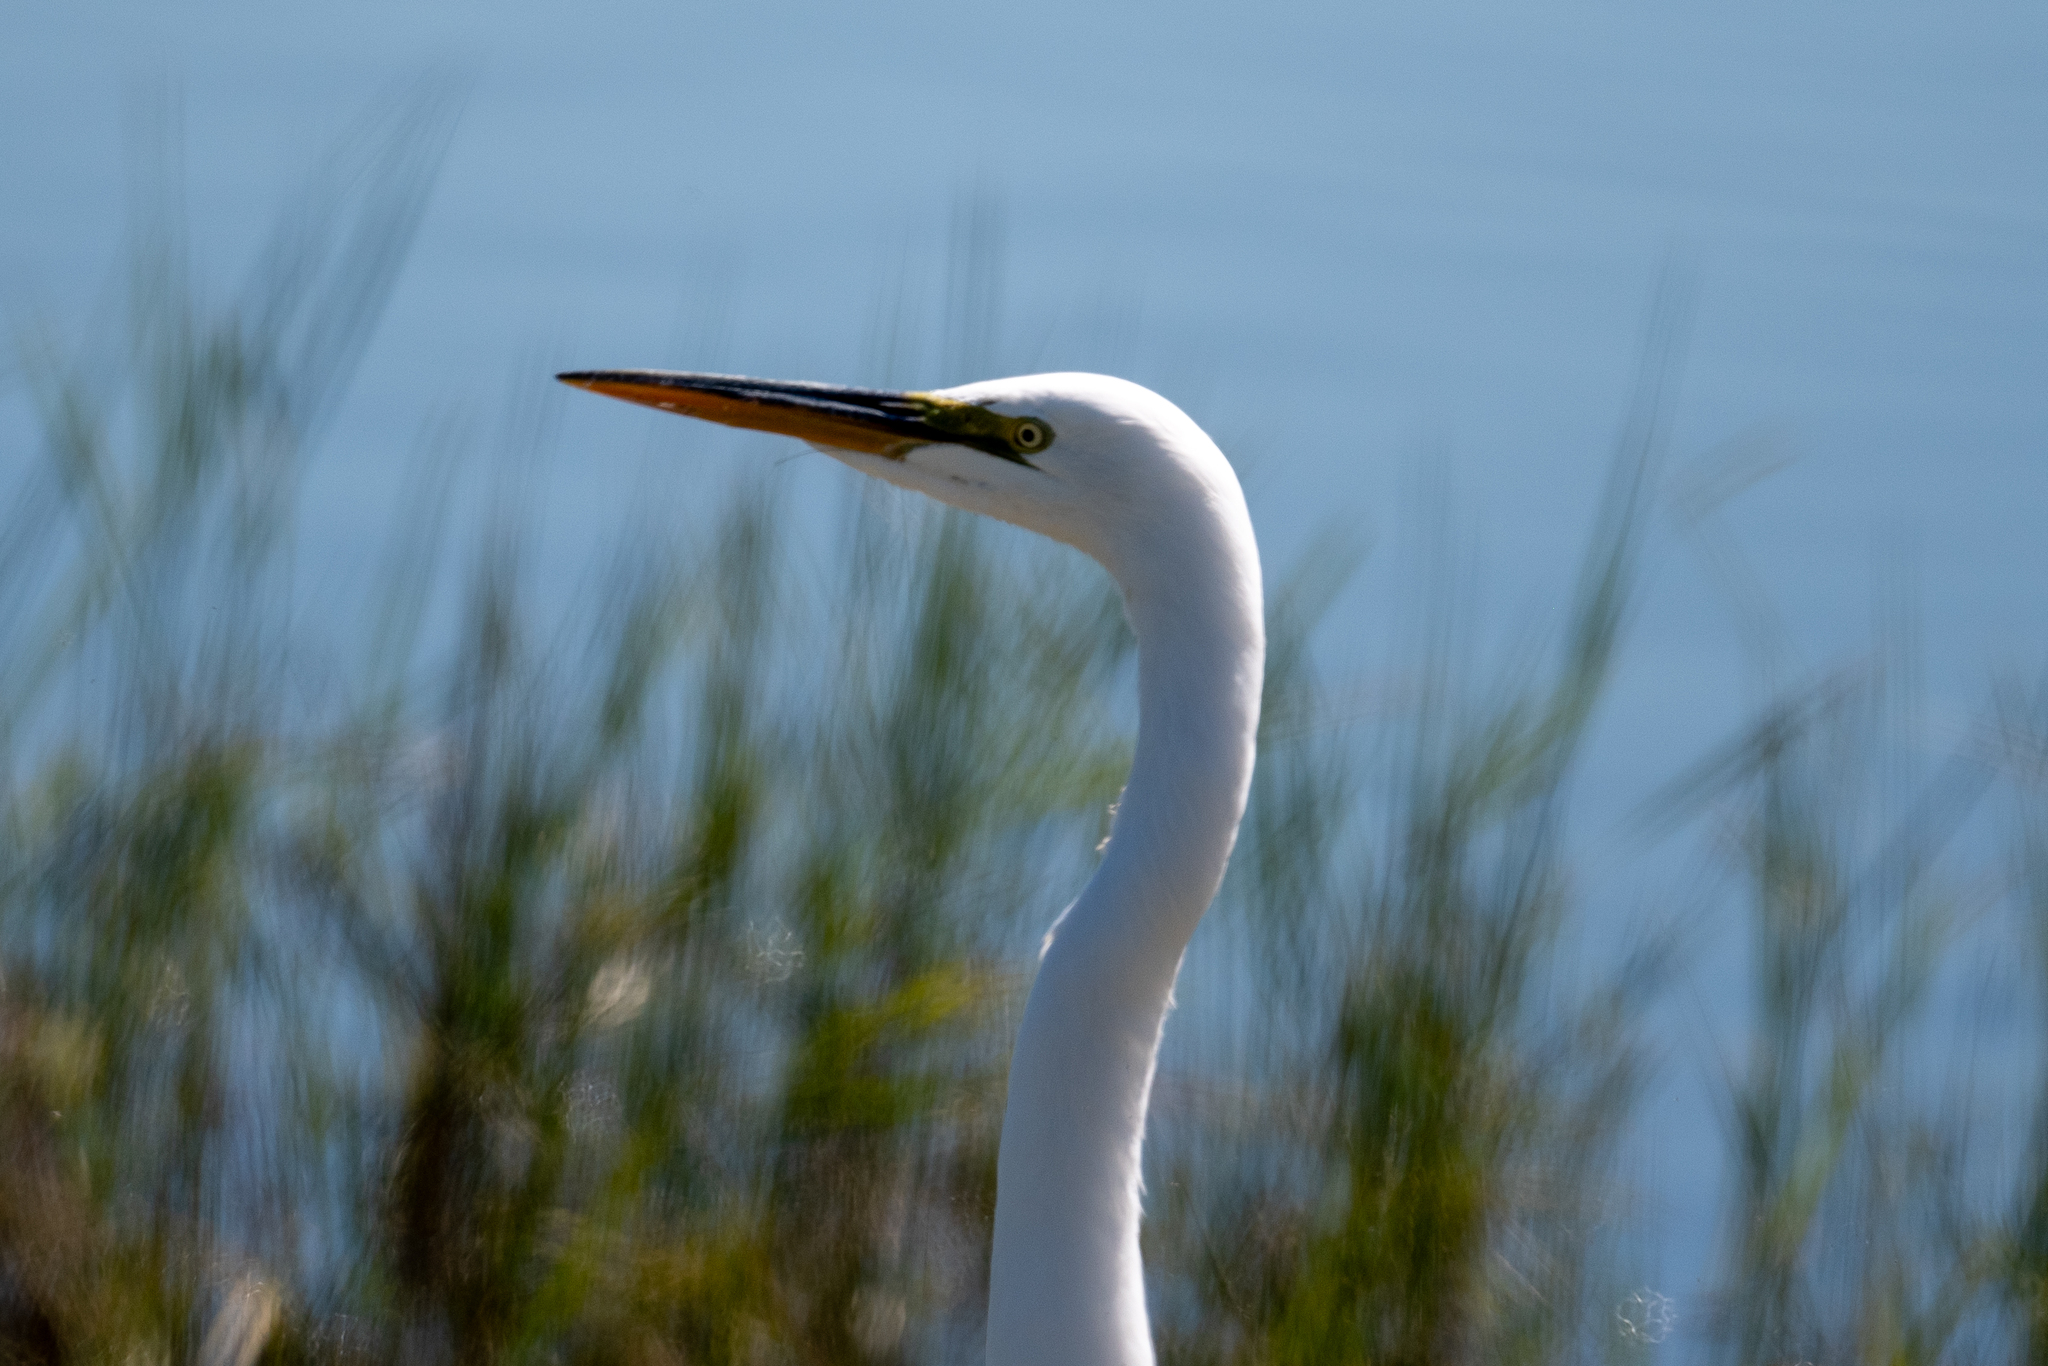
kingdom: Animalia
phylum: Chordata
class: Aves
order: Pelecaniformes
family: Ardeidae
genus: Ardea
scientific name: Ardea alba
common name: Great egret
